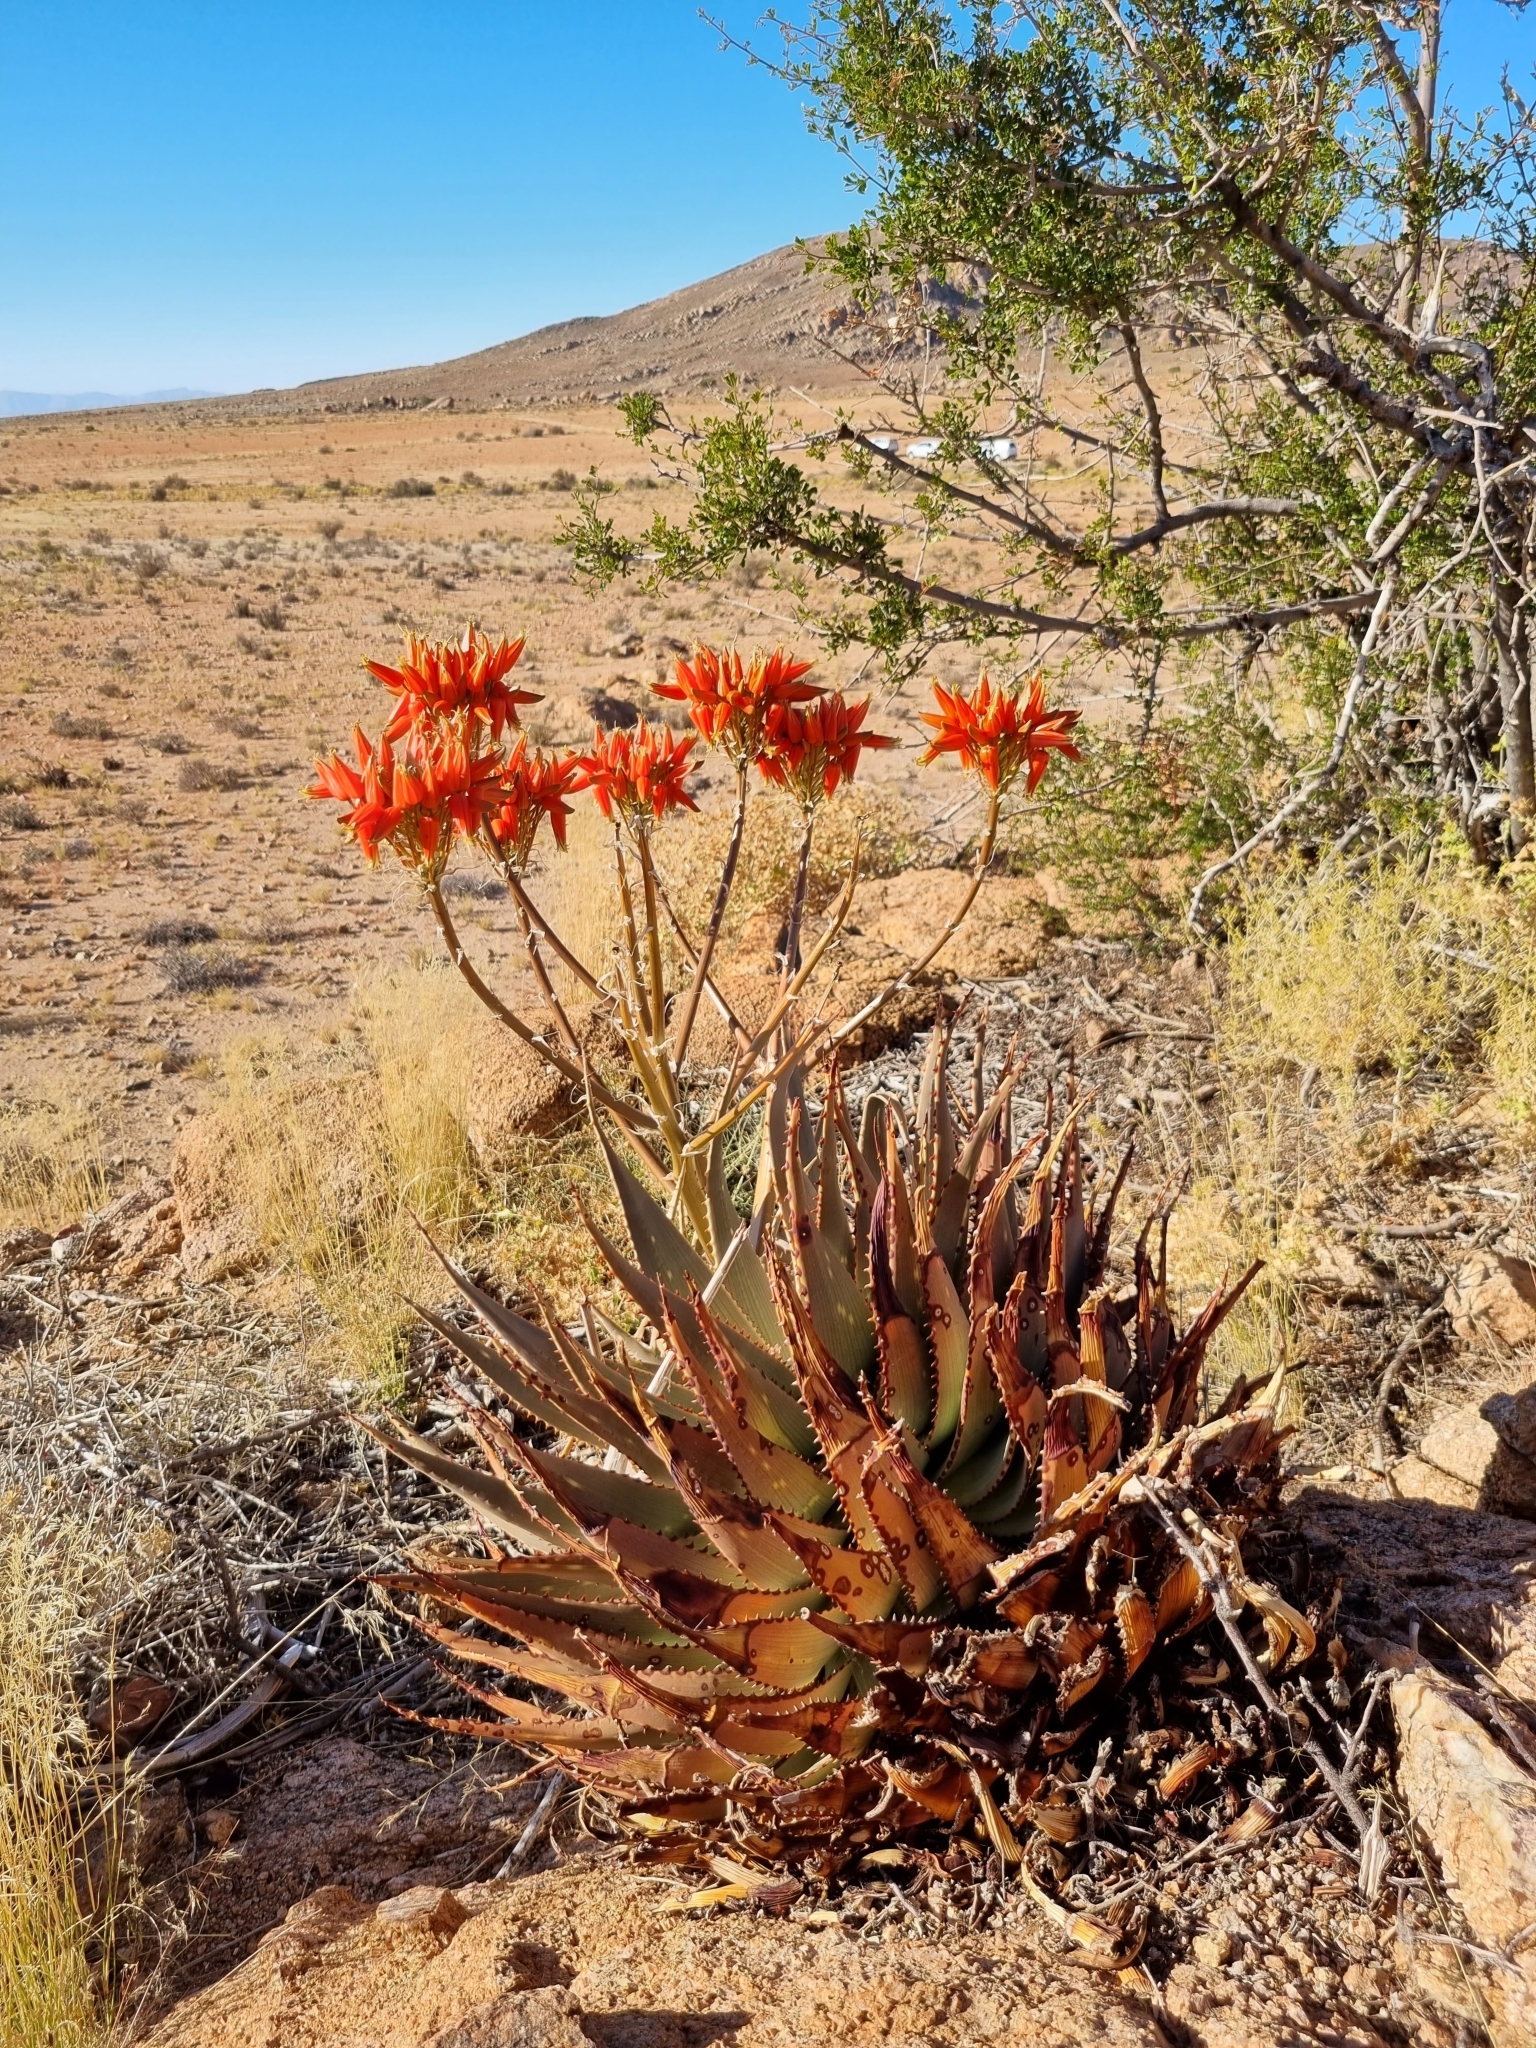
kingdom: Plantae
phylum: Tracheophyta
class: Liliopsida
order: Asparagales
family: Asphodelaceae
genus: Aloe
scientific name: Aloe hereroensis
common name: Herero aloe
